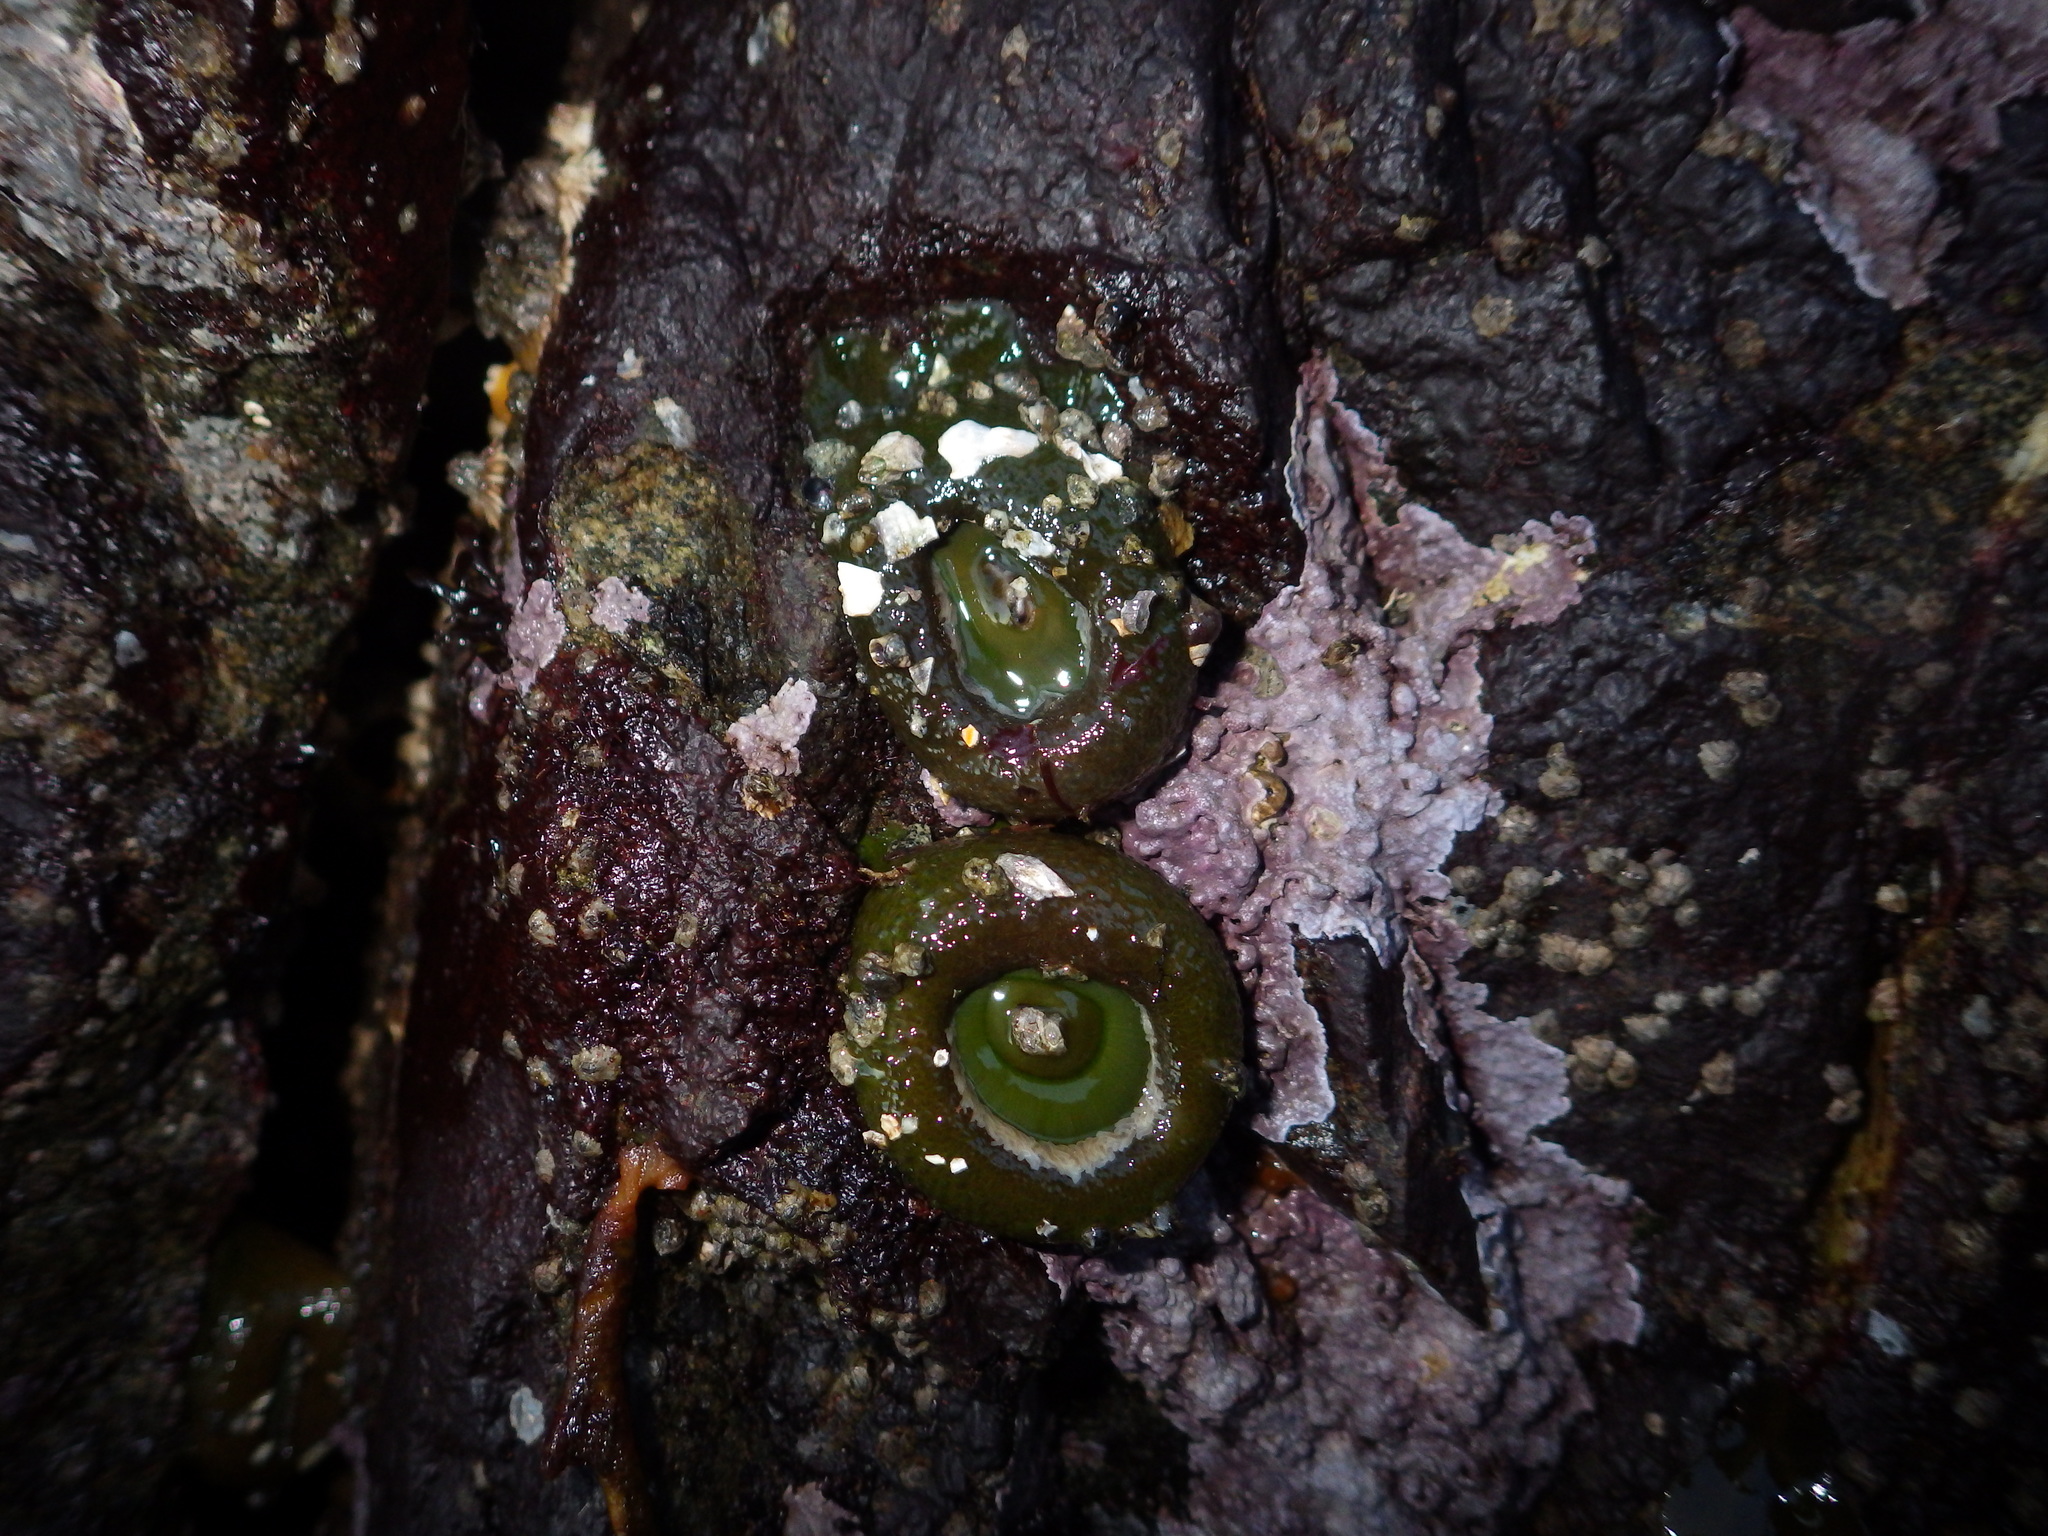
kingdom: Animalia
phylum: Cnidaria
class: Anthozoa
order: Actiniaria
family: Actiniidae
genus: Anthopleura
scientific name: Anthopleura xanthogrammica
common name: Giant green anemone
